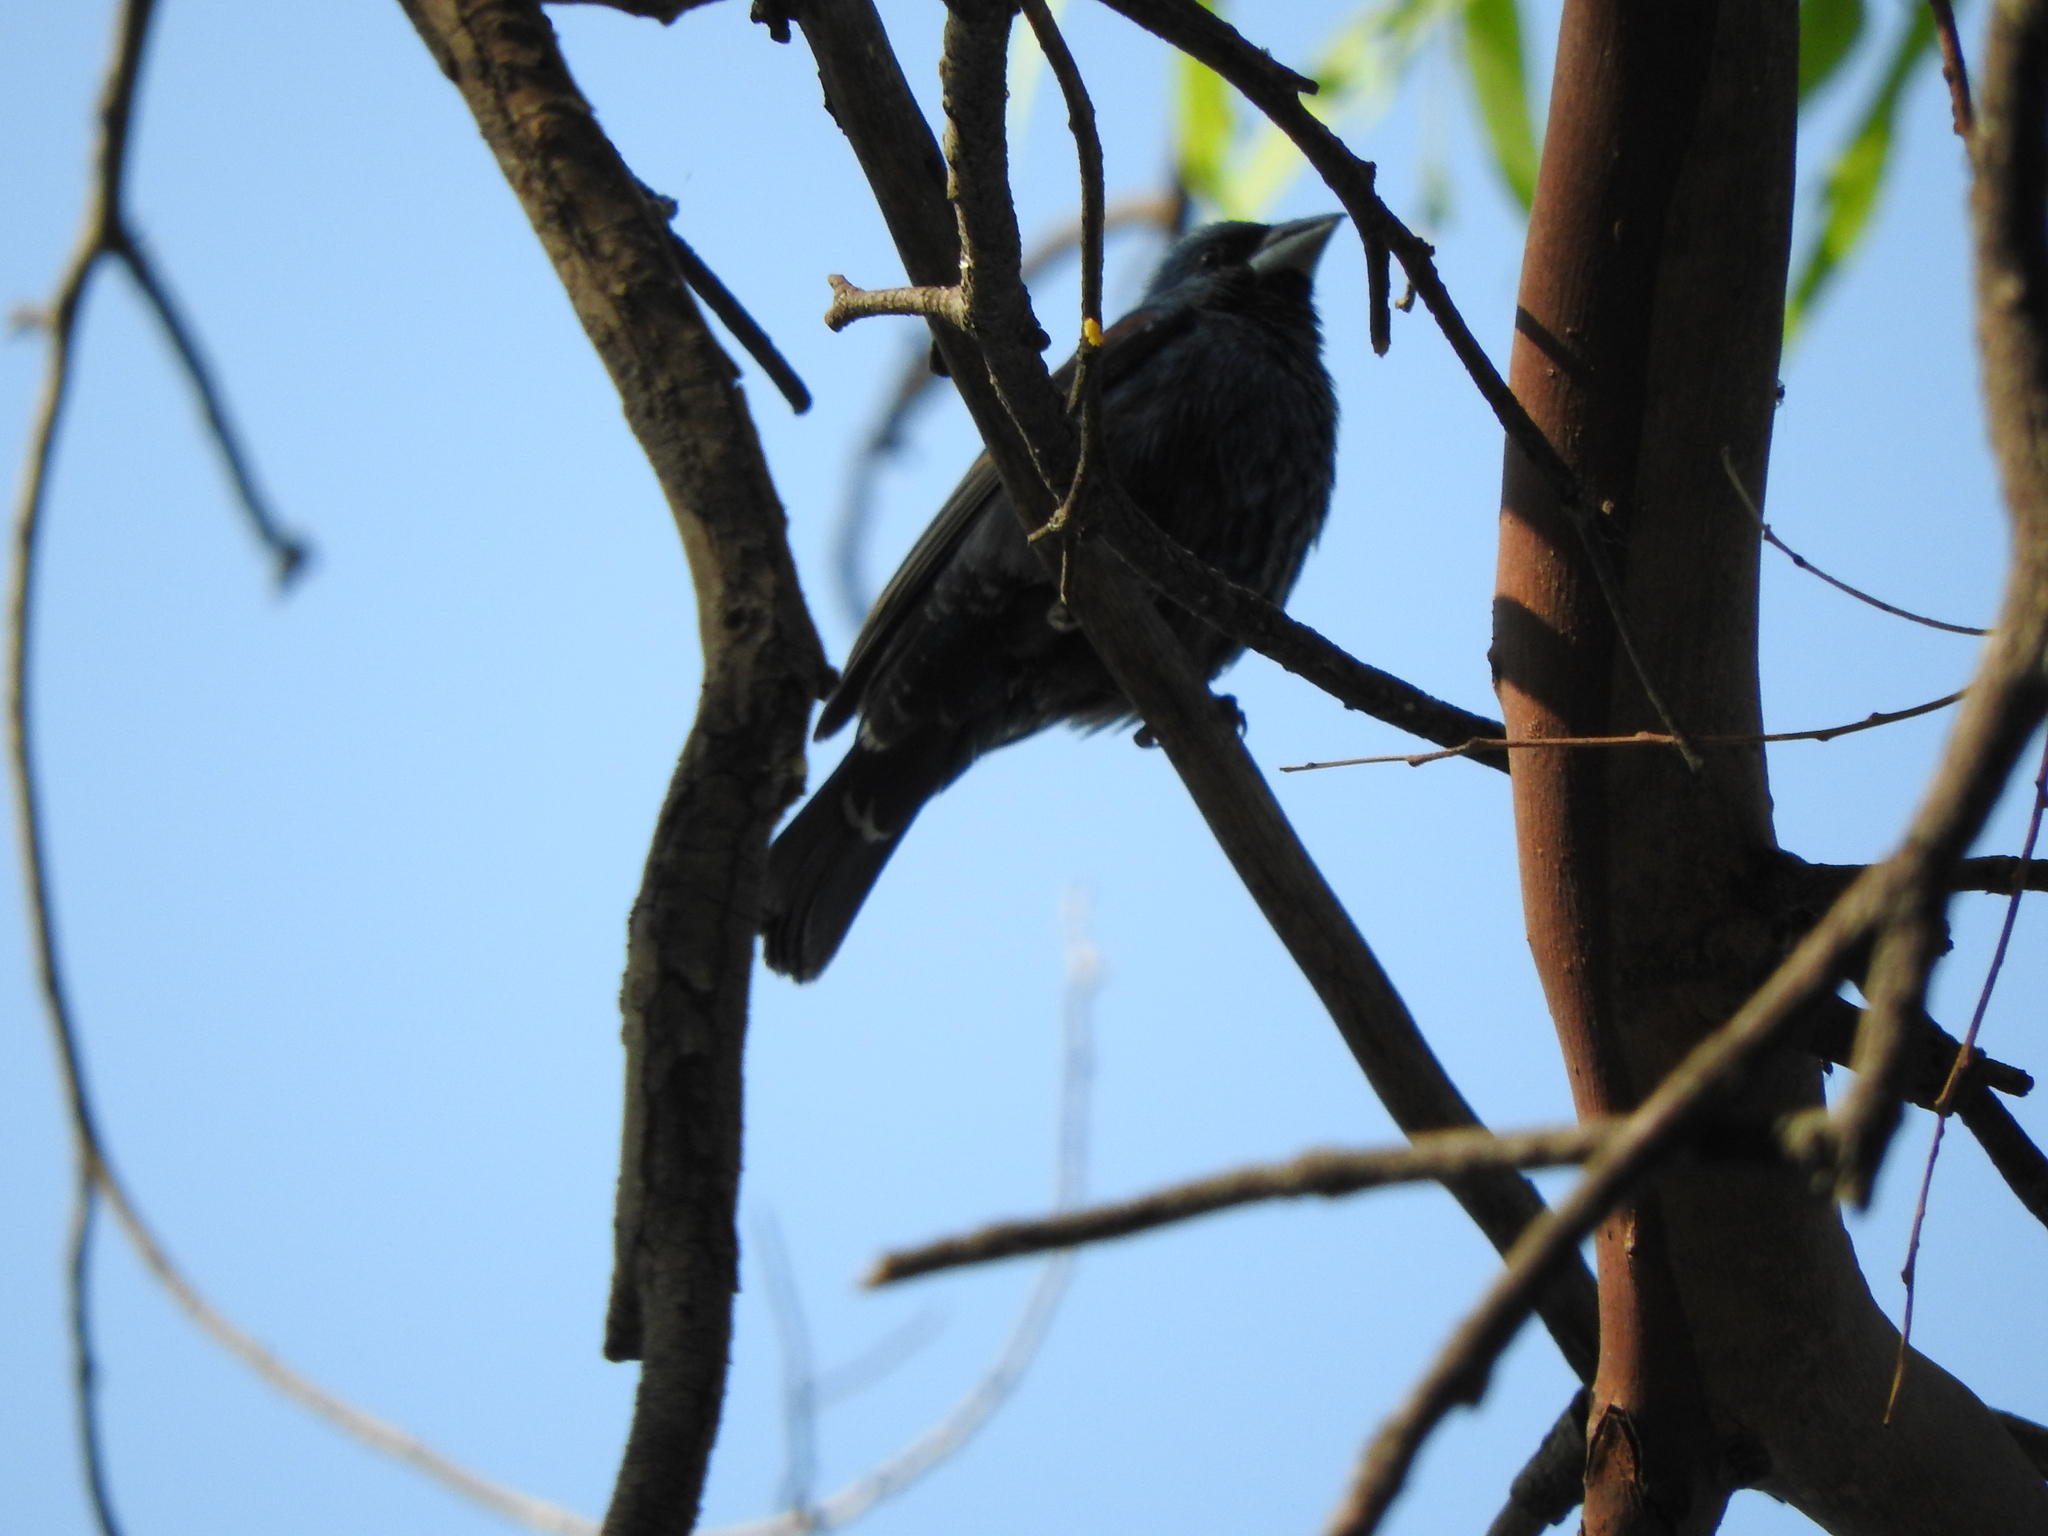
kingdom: Animalia
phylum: Chordata
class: Aves
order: Passeriformes
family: Cardinalidae
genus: Passerina
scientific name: Passerina caerulea
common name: Blue grosbeak
